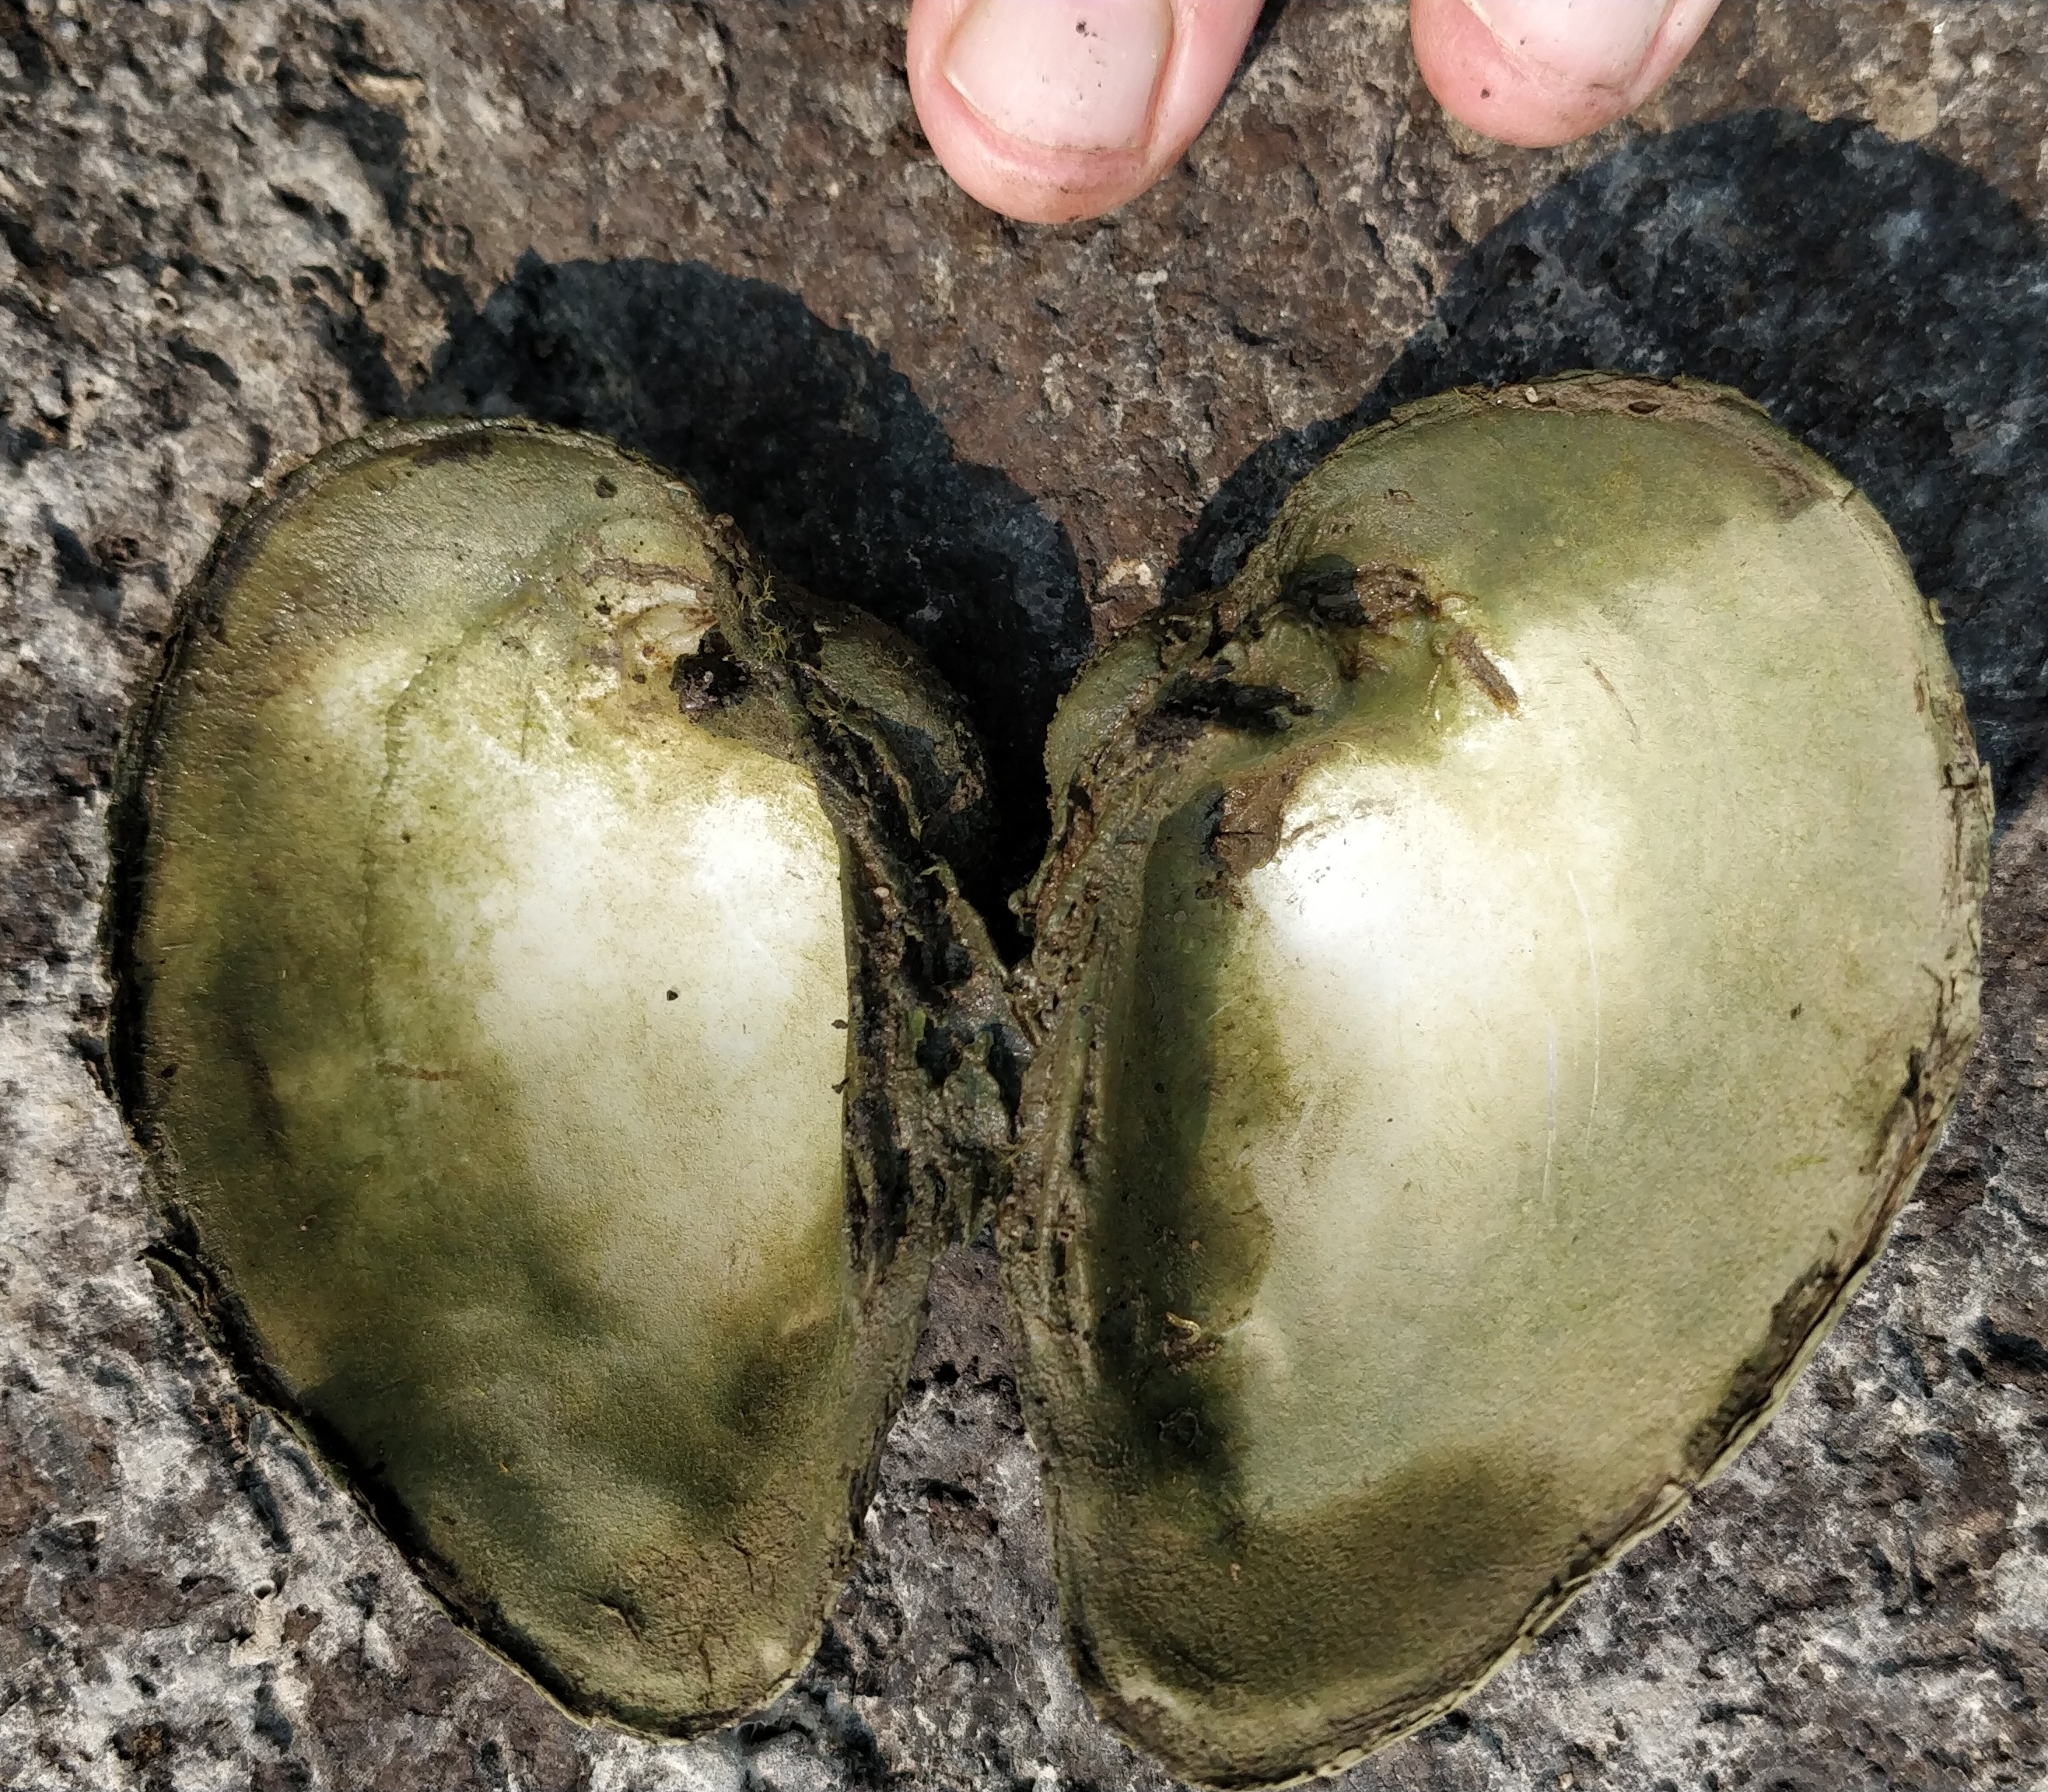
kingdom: Animalia
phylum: Mollusca
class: Bivalvia
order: Unionida
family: Unionidae
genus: Truncilla
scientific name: Truncilla truncata
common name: Deertoe
